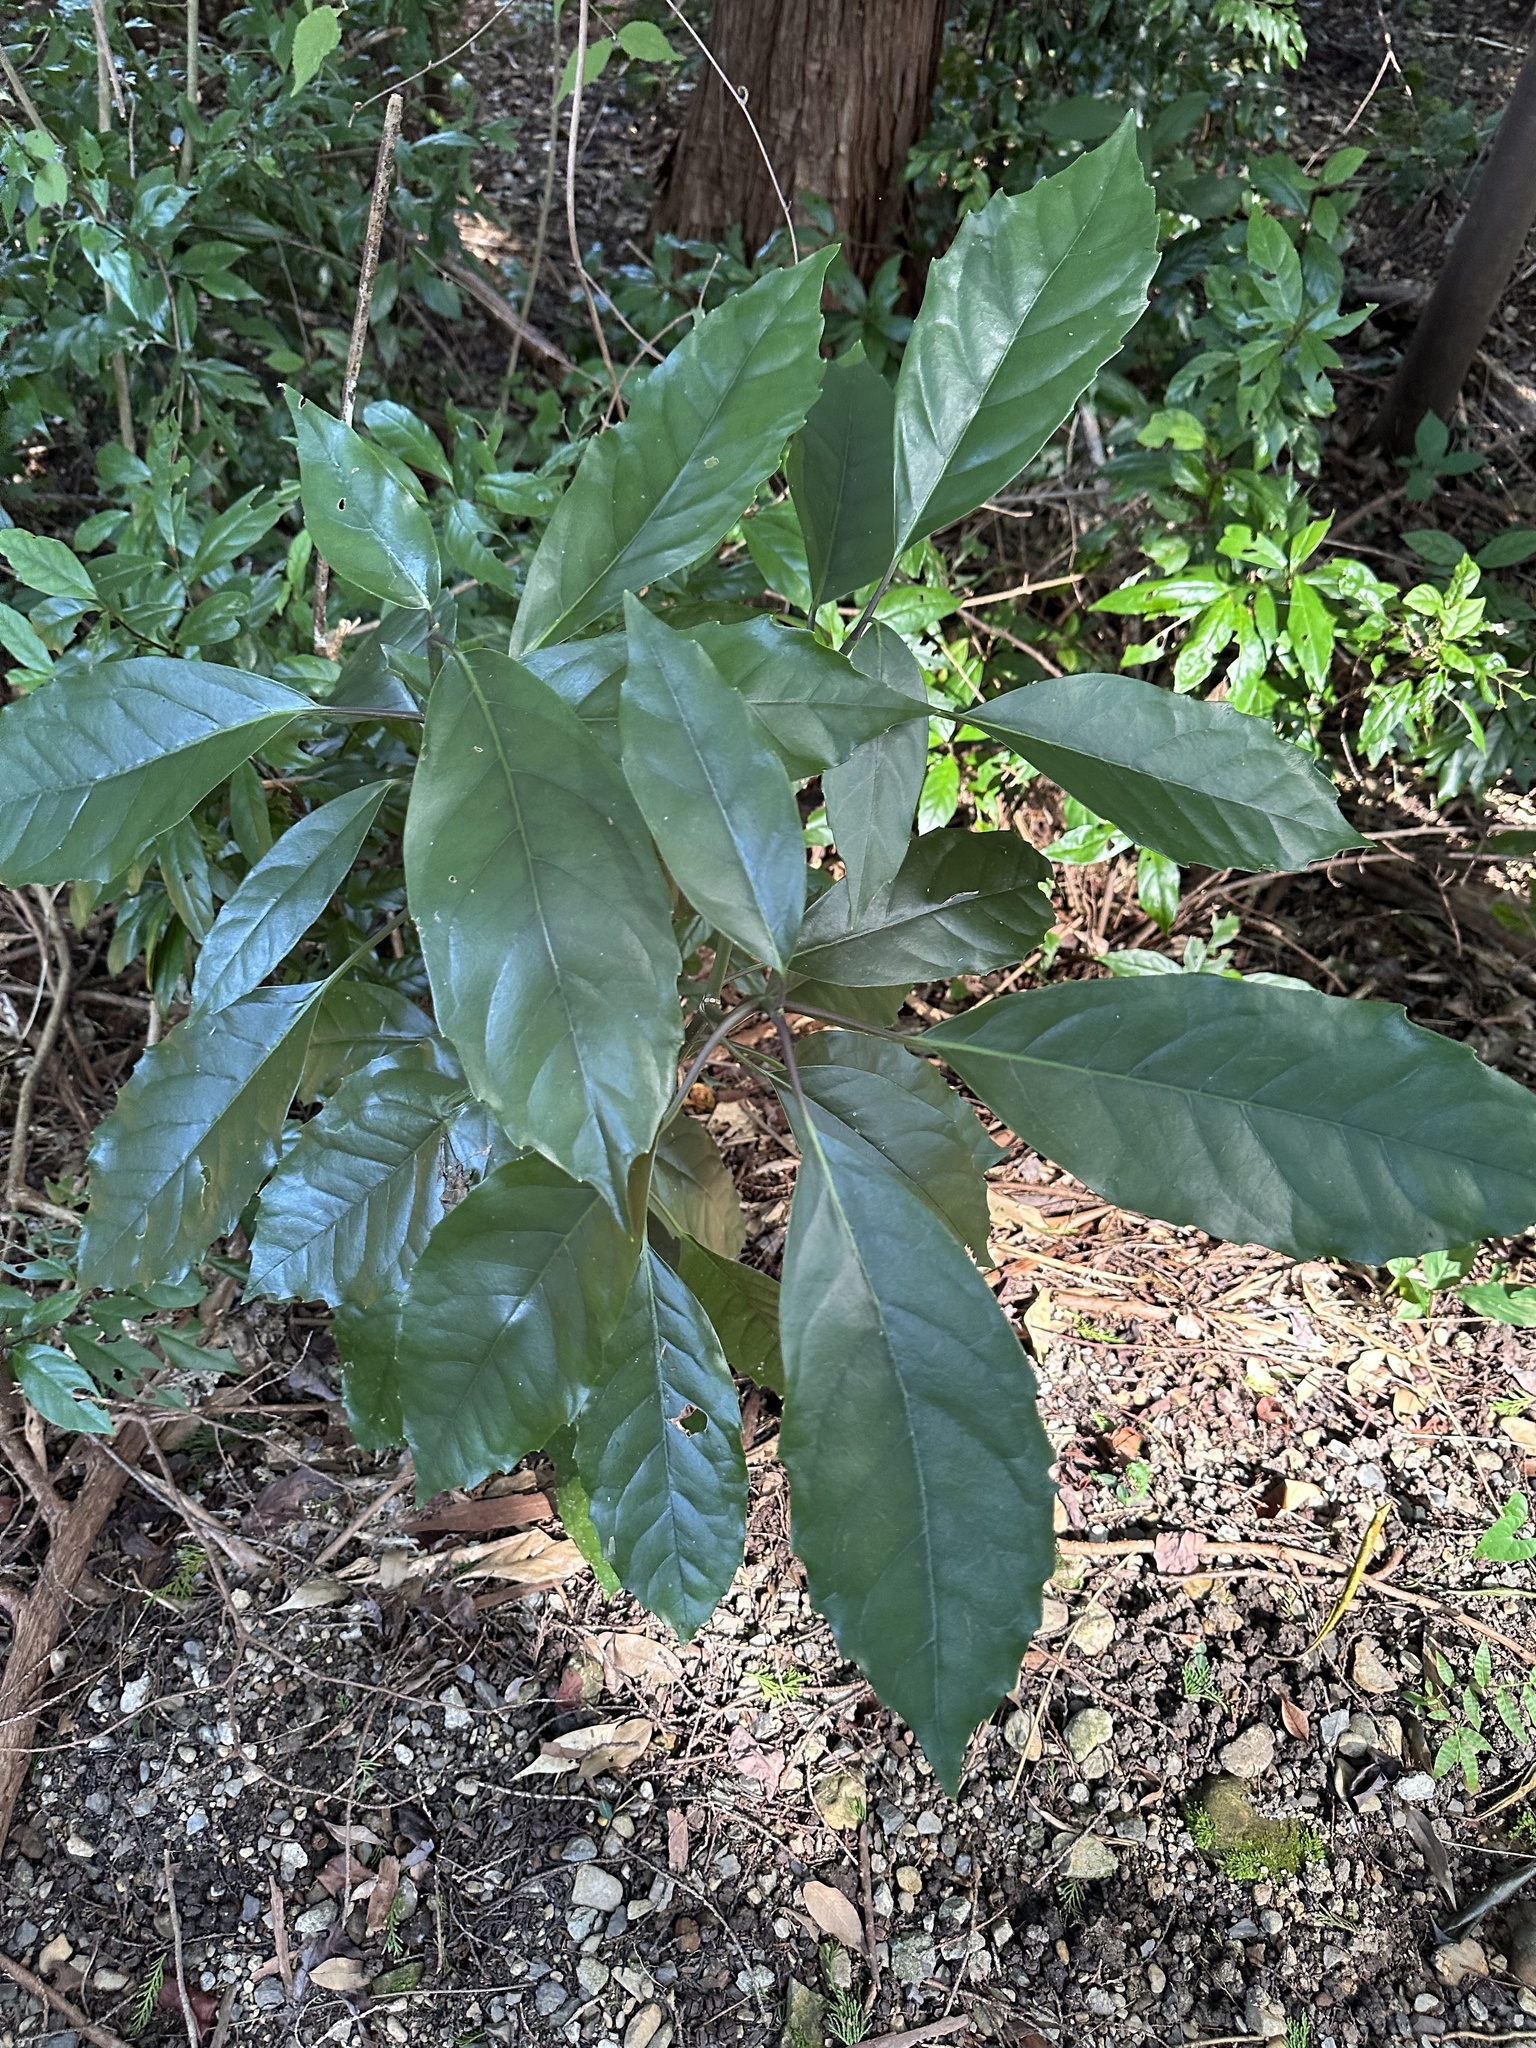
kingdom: Plantae
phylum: Tracheophyta
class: Magnoliopsida
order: Garryales
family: Garryaceae
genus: Aucuba
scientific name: Aucuba japonica
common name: Spotted-laurel
